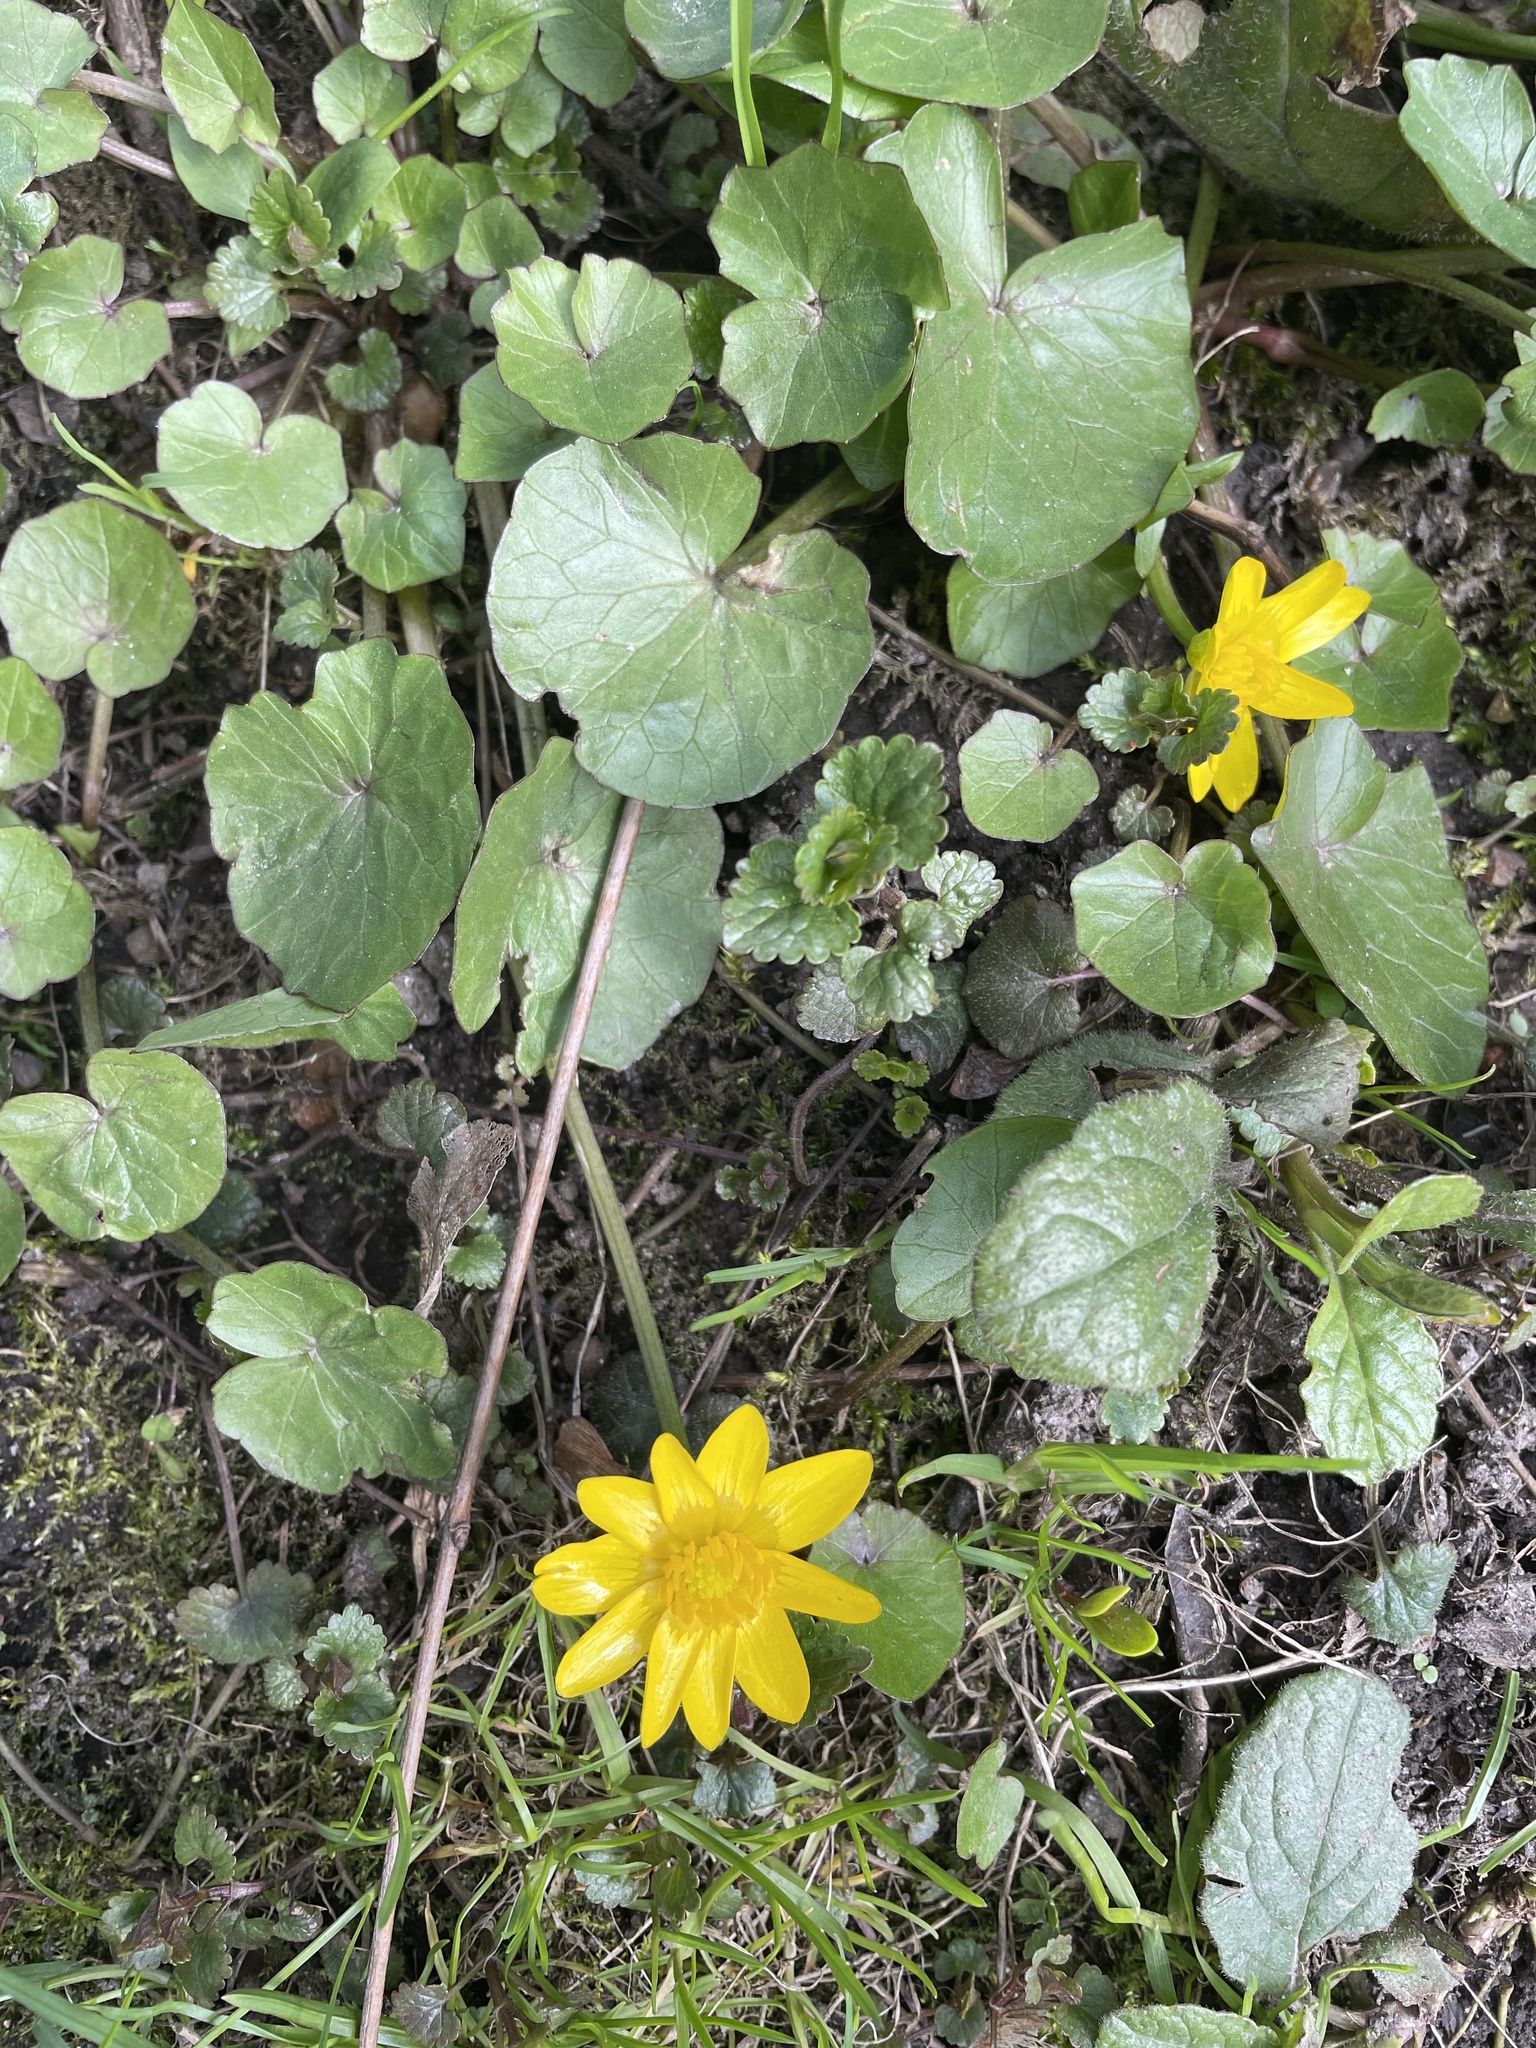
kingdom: Plantae
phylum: Tracheophyta
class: Magnoliopsida
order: Ranunculales
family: Ranunculaceae
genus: Ficaria
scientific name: Ficaria verna
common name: Lesser celandine
